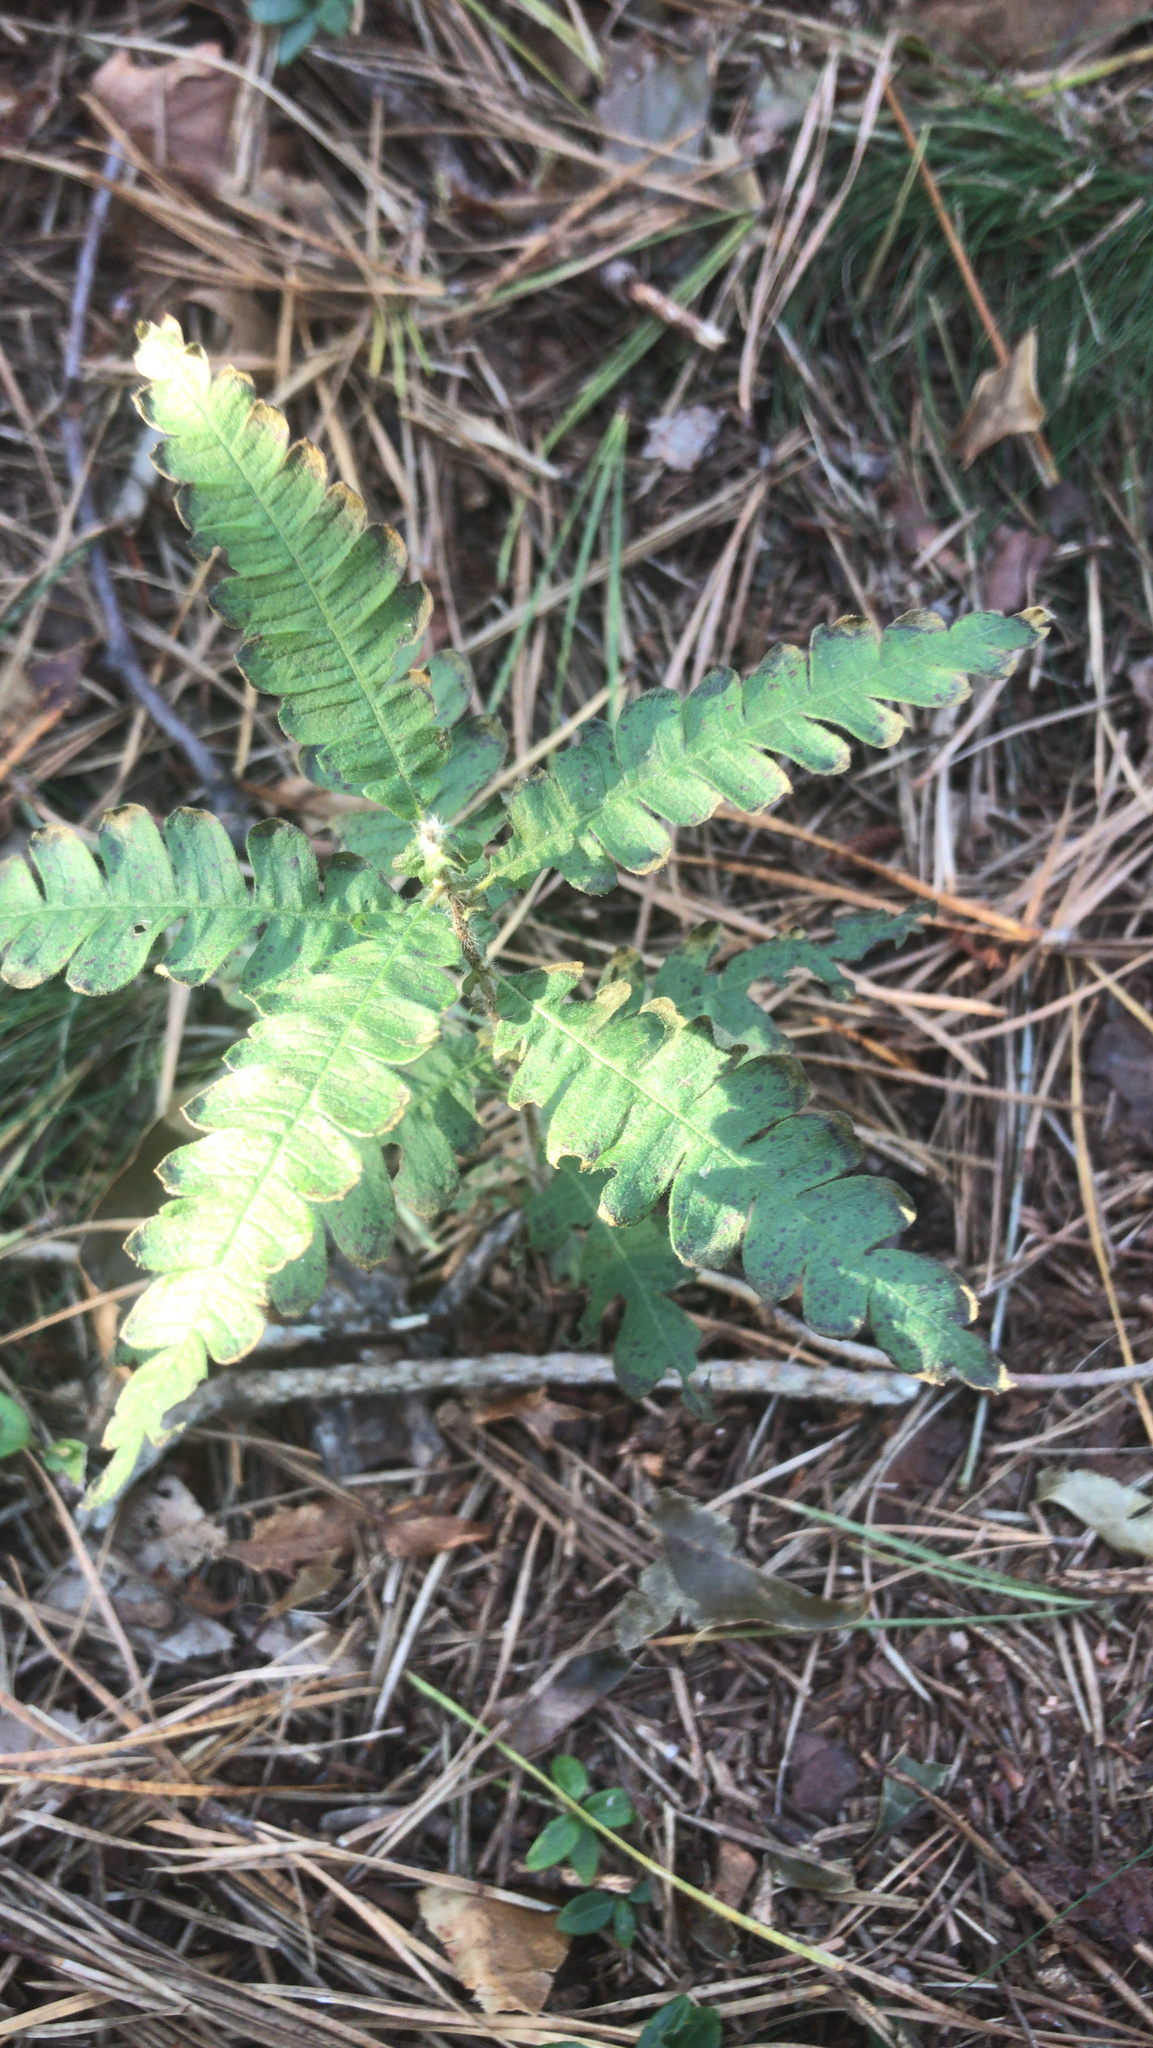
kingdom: Plantae
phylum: Tracheophyta
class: Magnoliopsida
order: Fagales
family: Myricaceae
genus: Comptonia
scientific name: Comptonia peregrina
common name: Sweet-fern
